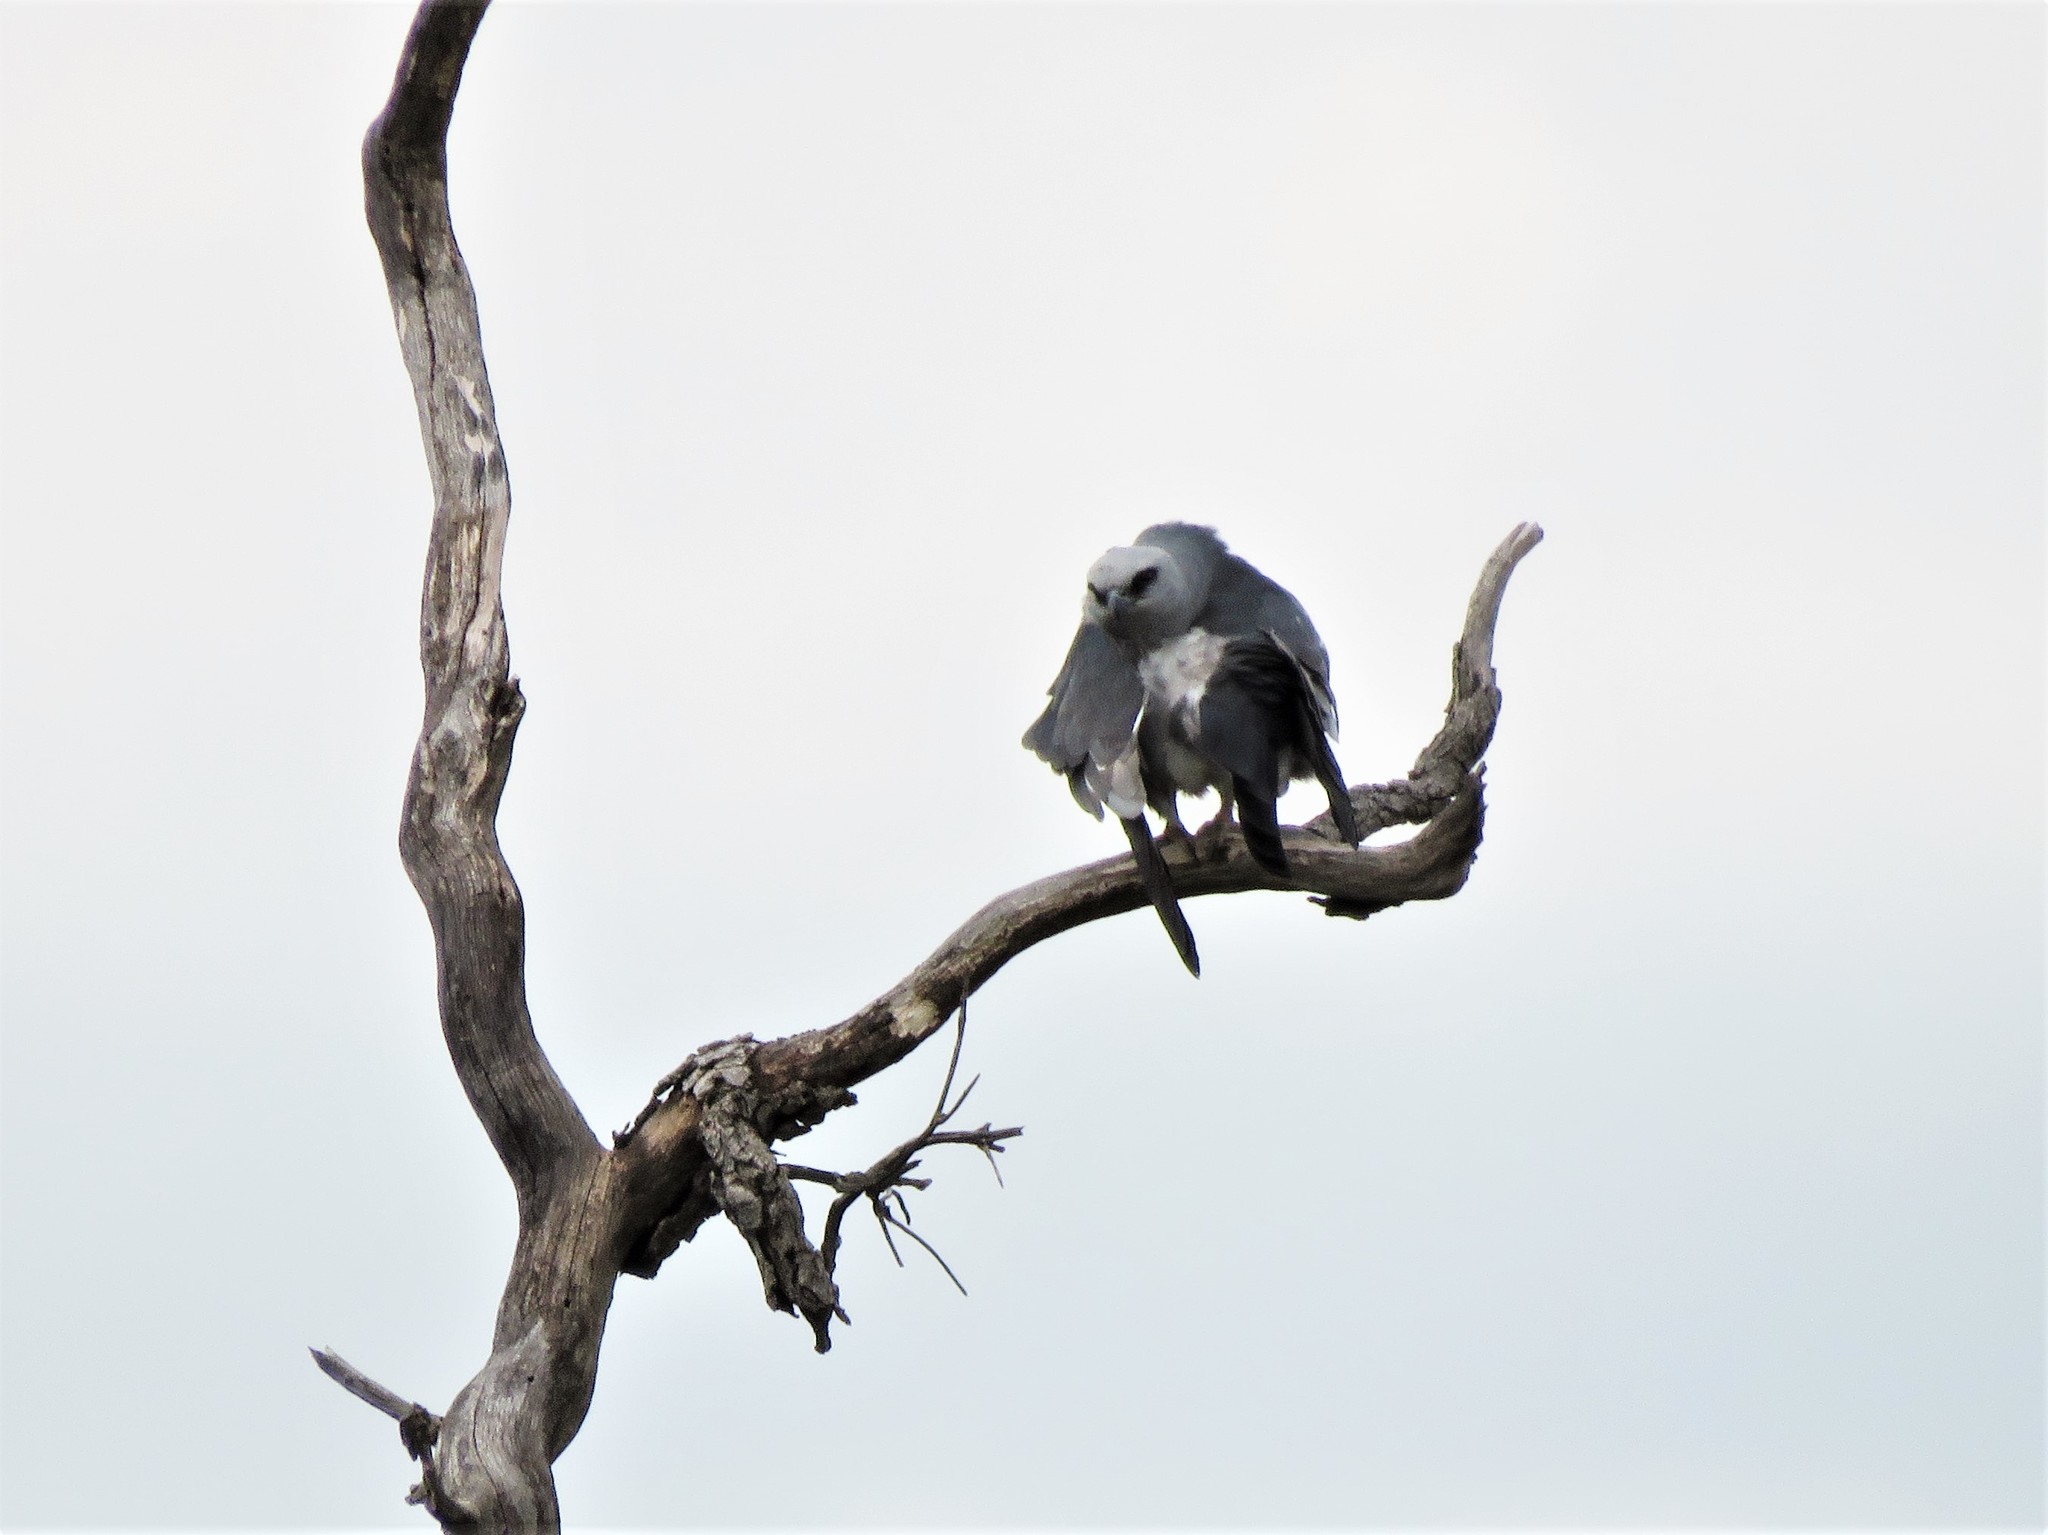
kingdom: Animalia
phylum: Chordata
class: Aves
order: Accipitriformes
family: Accipitridae
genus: Ictinia
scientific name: Ictinia mississippiensis
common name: Mississippi kite
